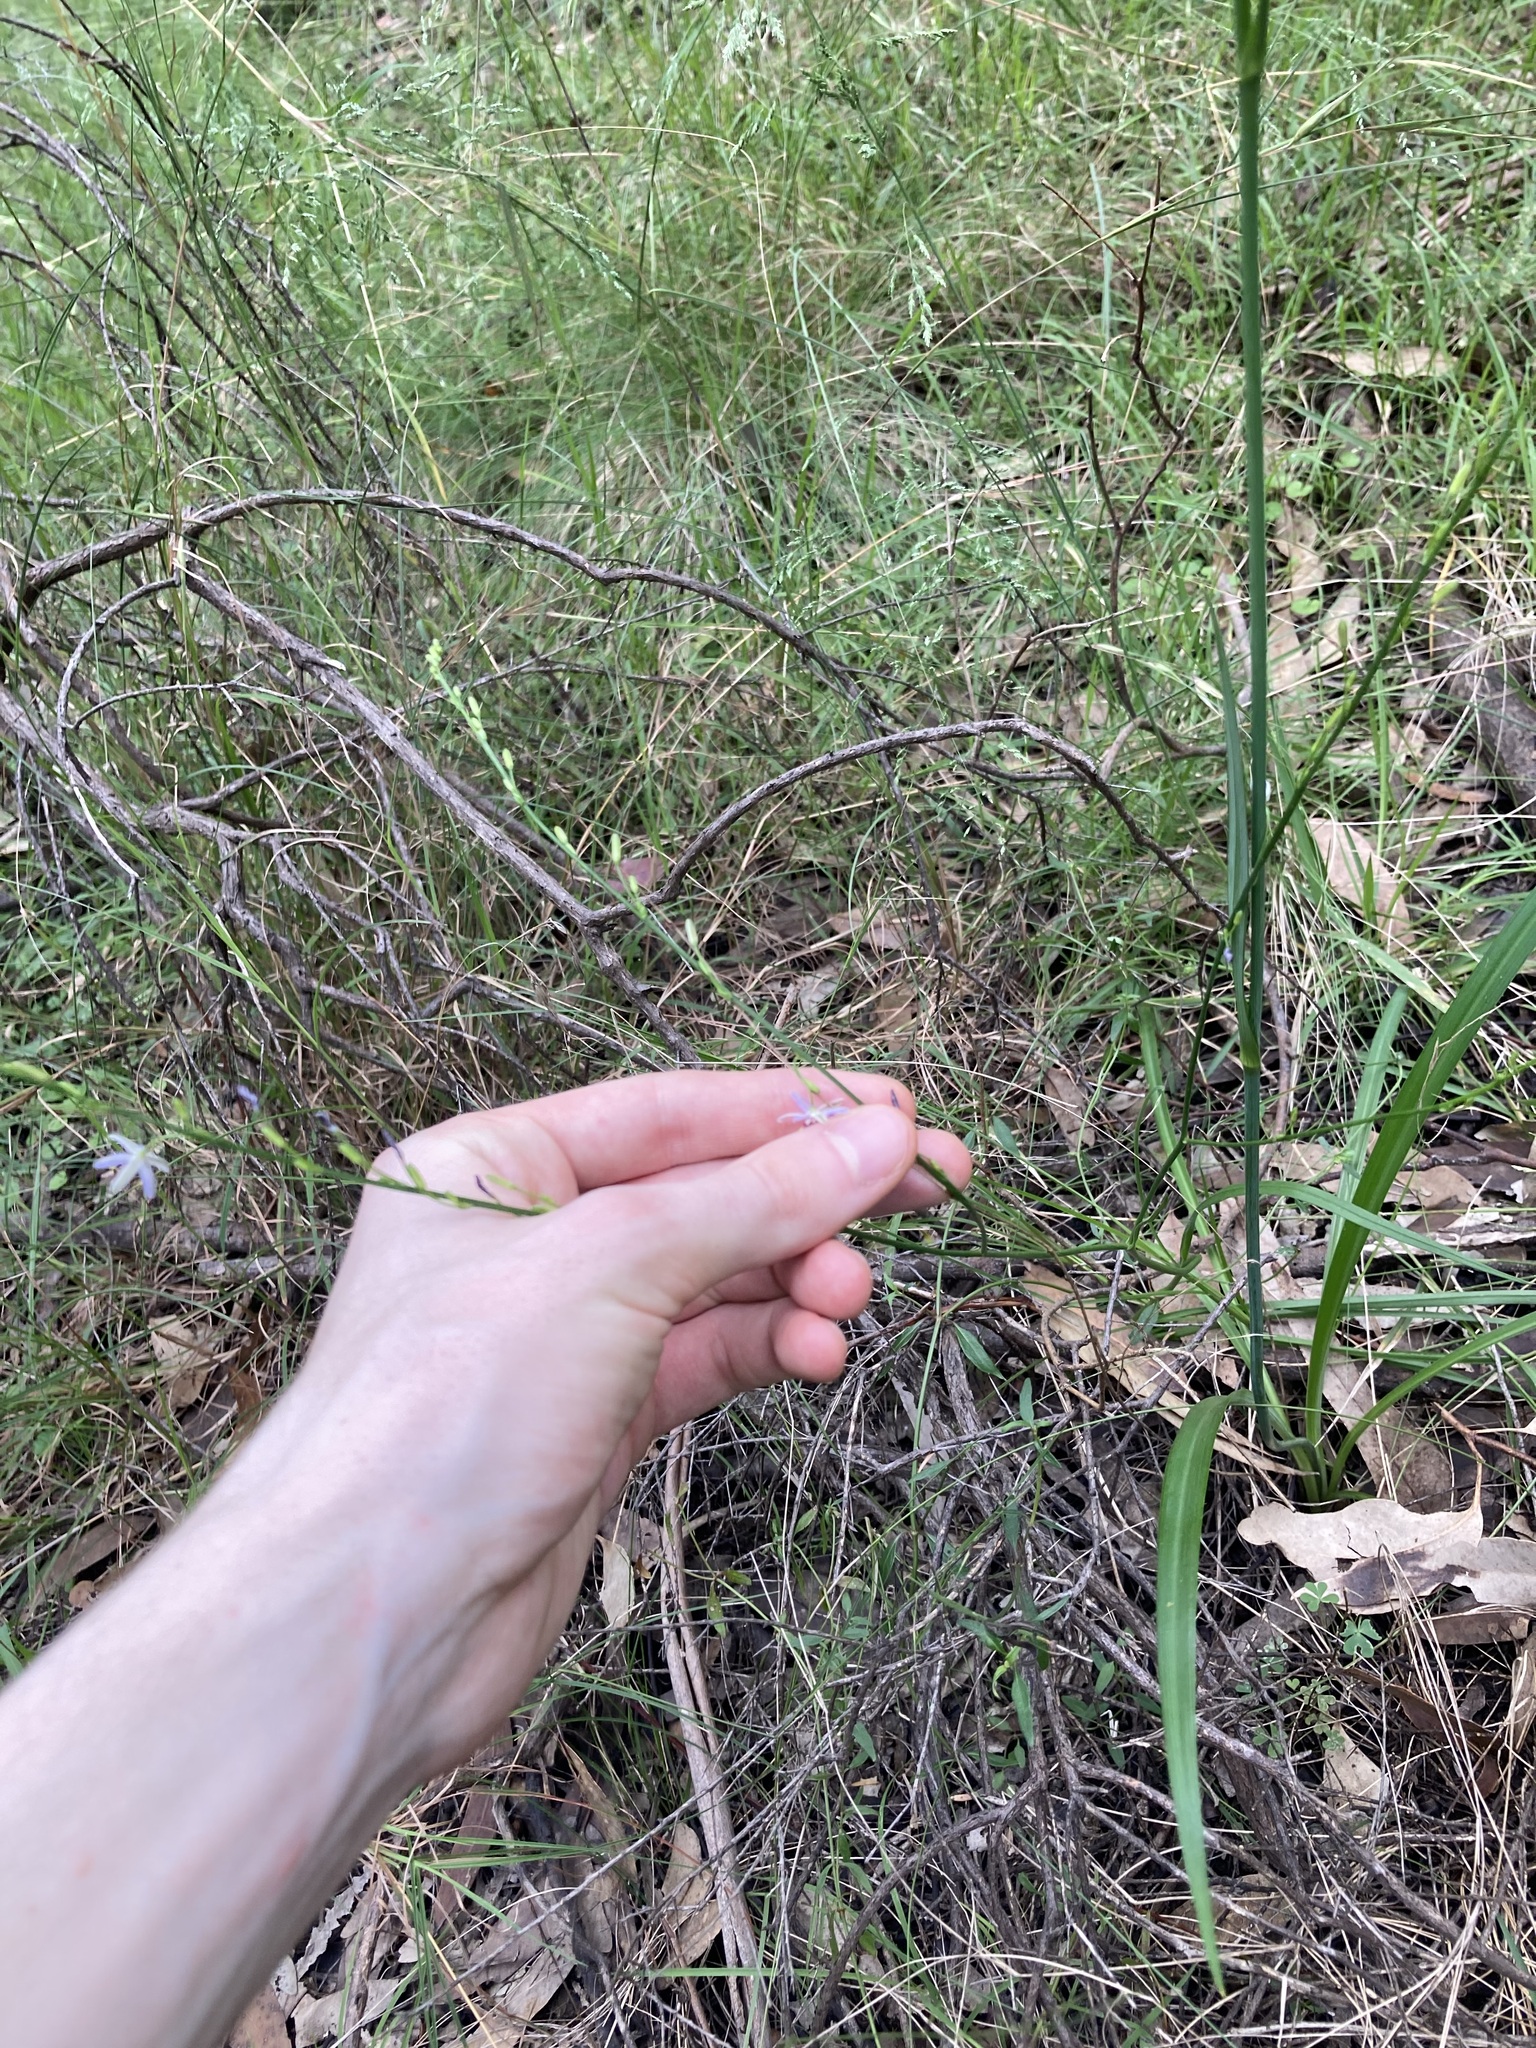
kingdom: Plantae
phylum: Tracheophyta
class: Liliopsida
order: Asparagales
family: Asphodelaceae
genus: Caesia
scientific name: Caesia parviflora
